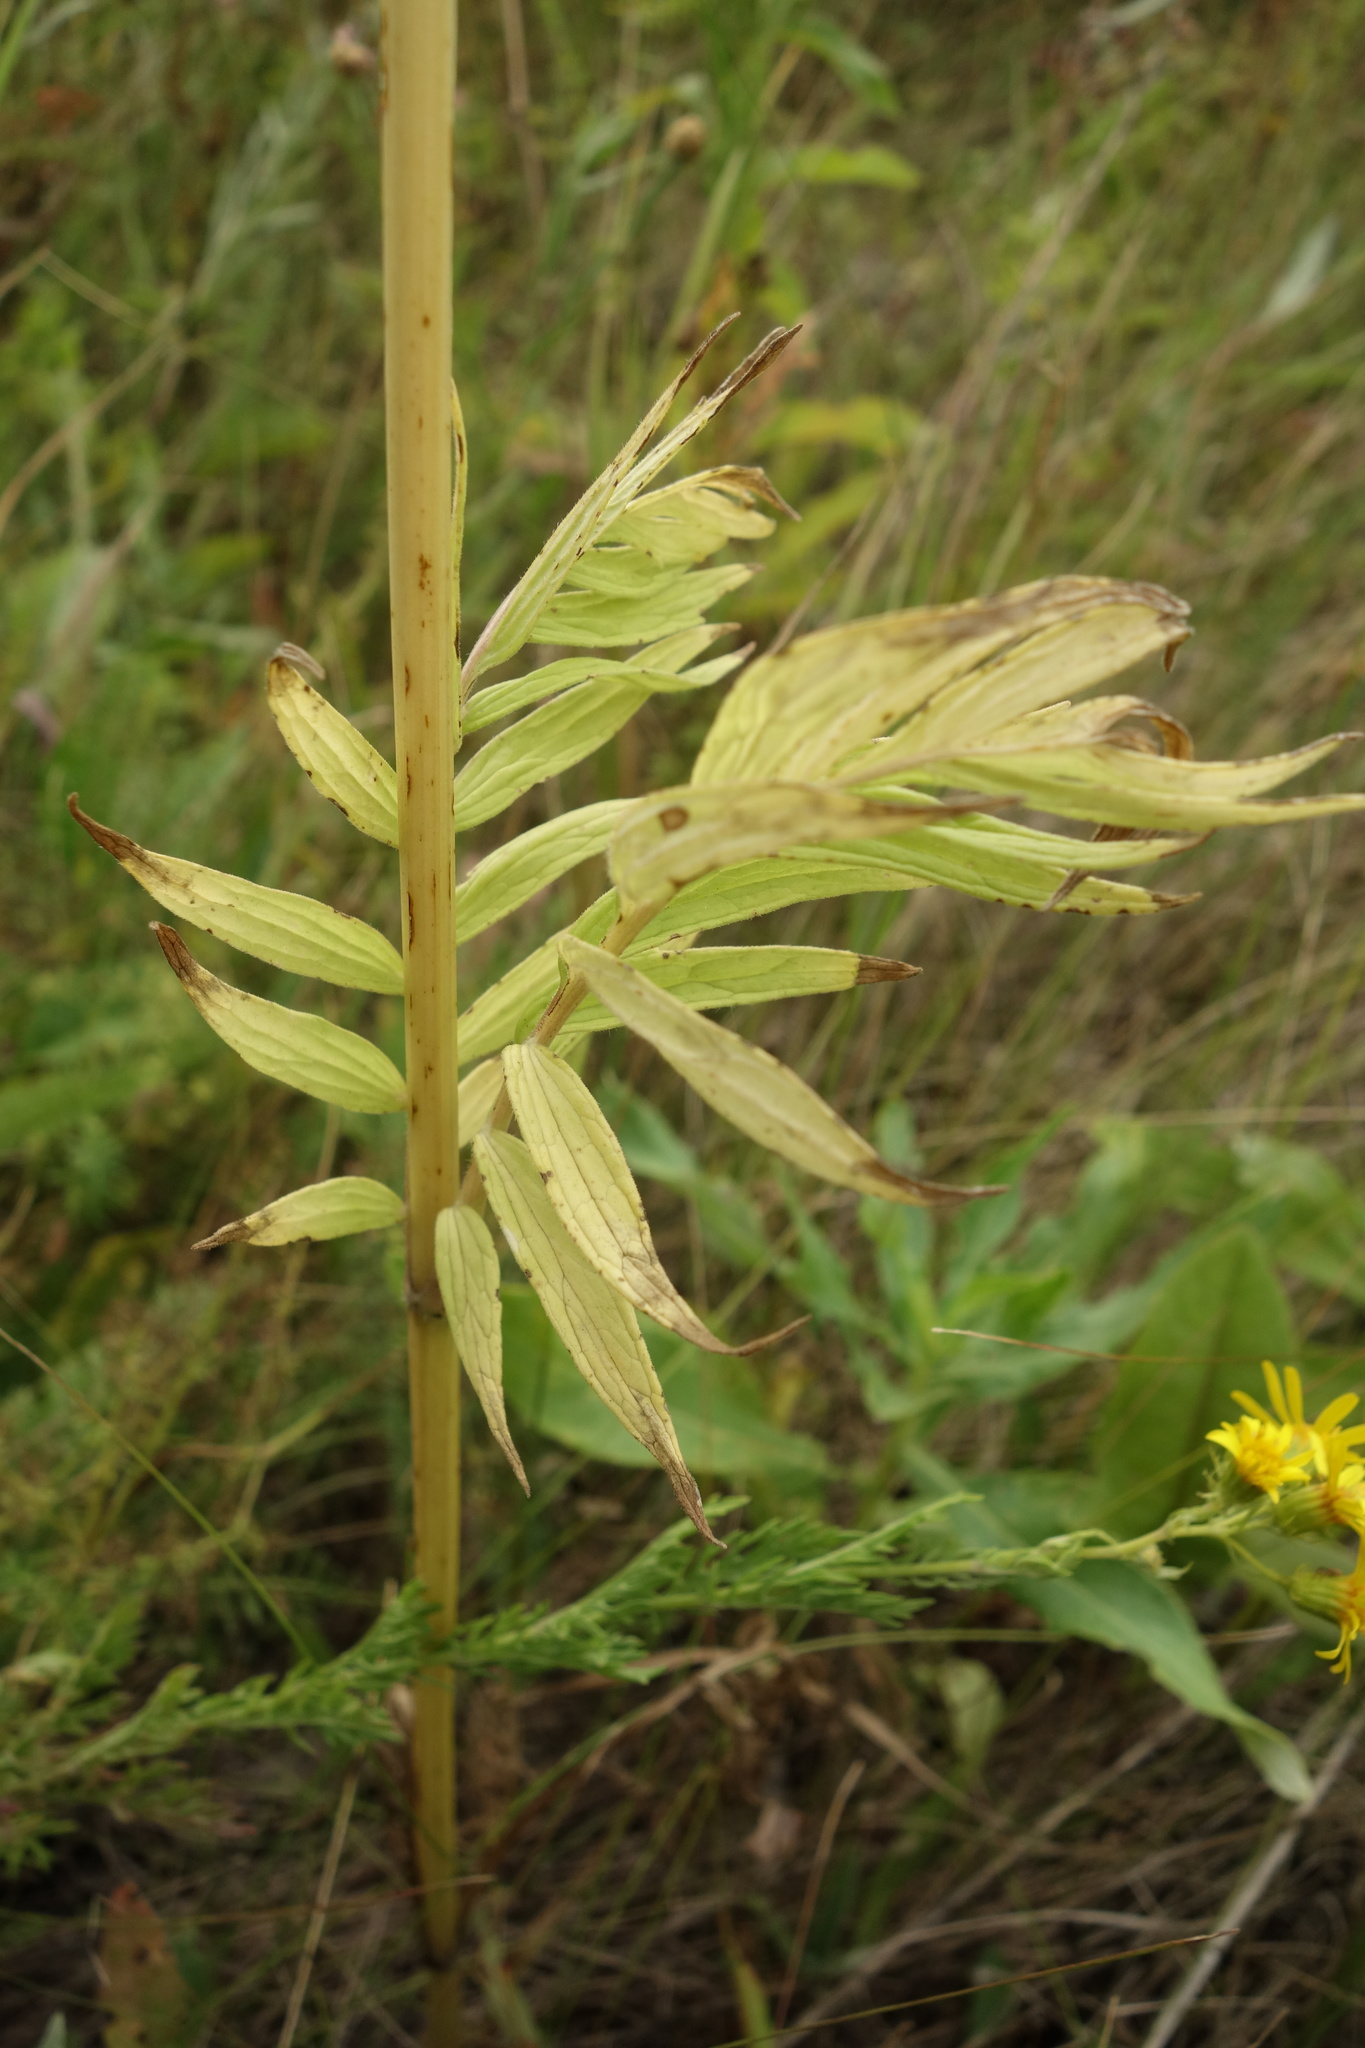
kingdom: Plantae
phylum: Tracheophyta
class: Magnoliopsida
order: Dipsacales
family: Caprifoliaceae
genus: Valeriana
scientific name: Valeriana rossica
